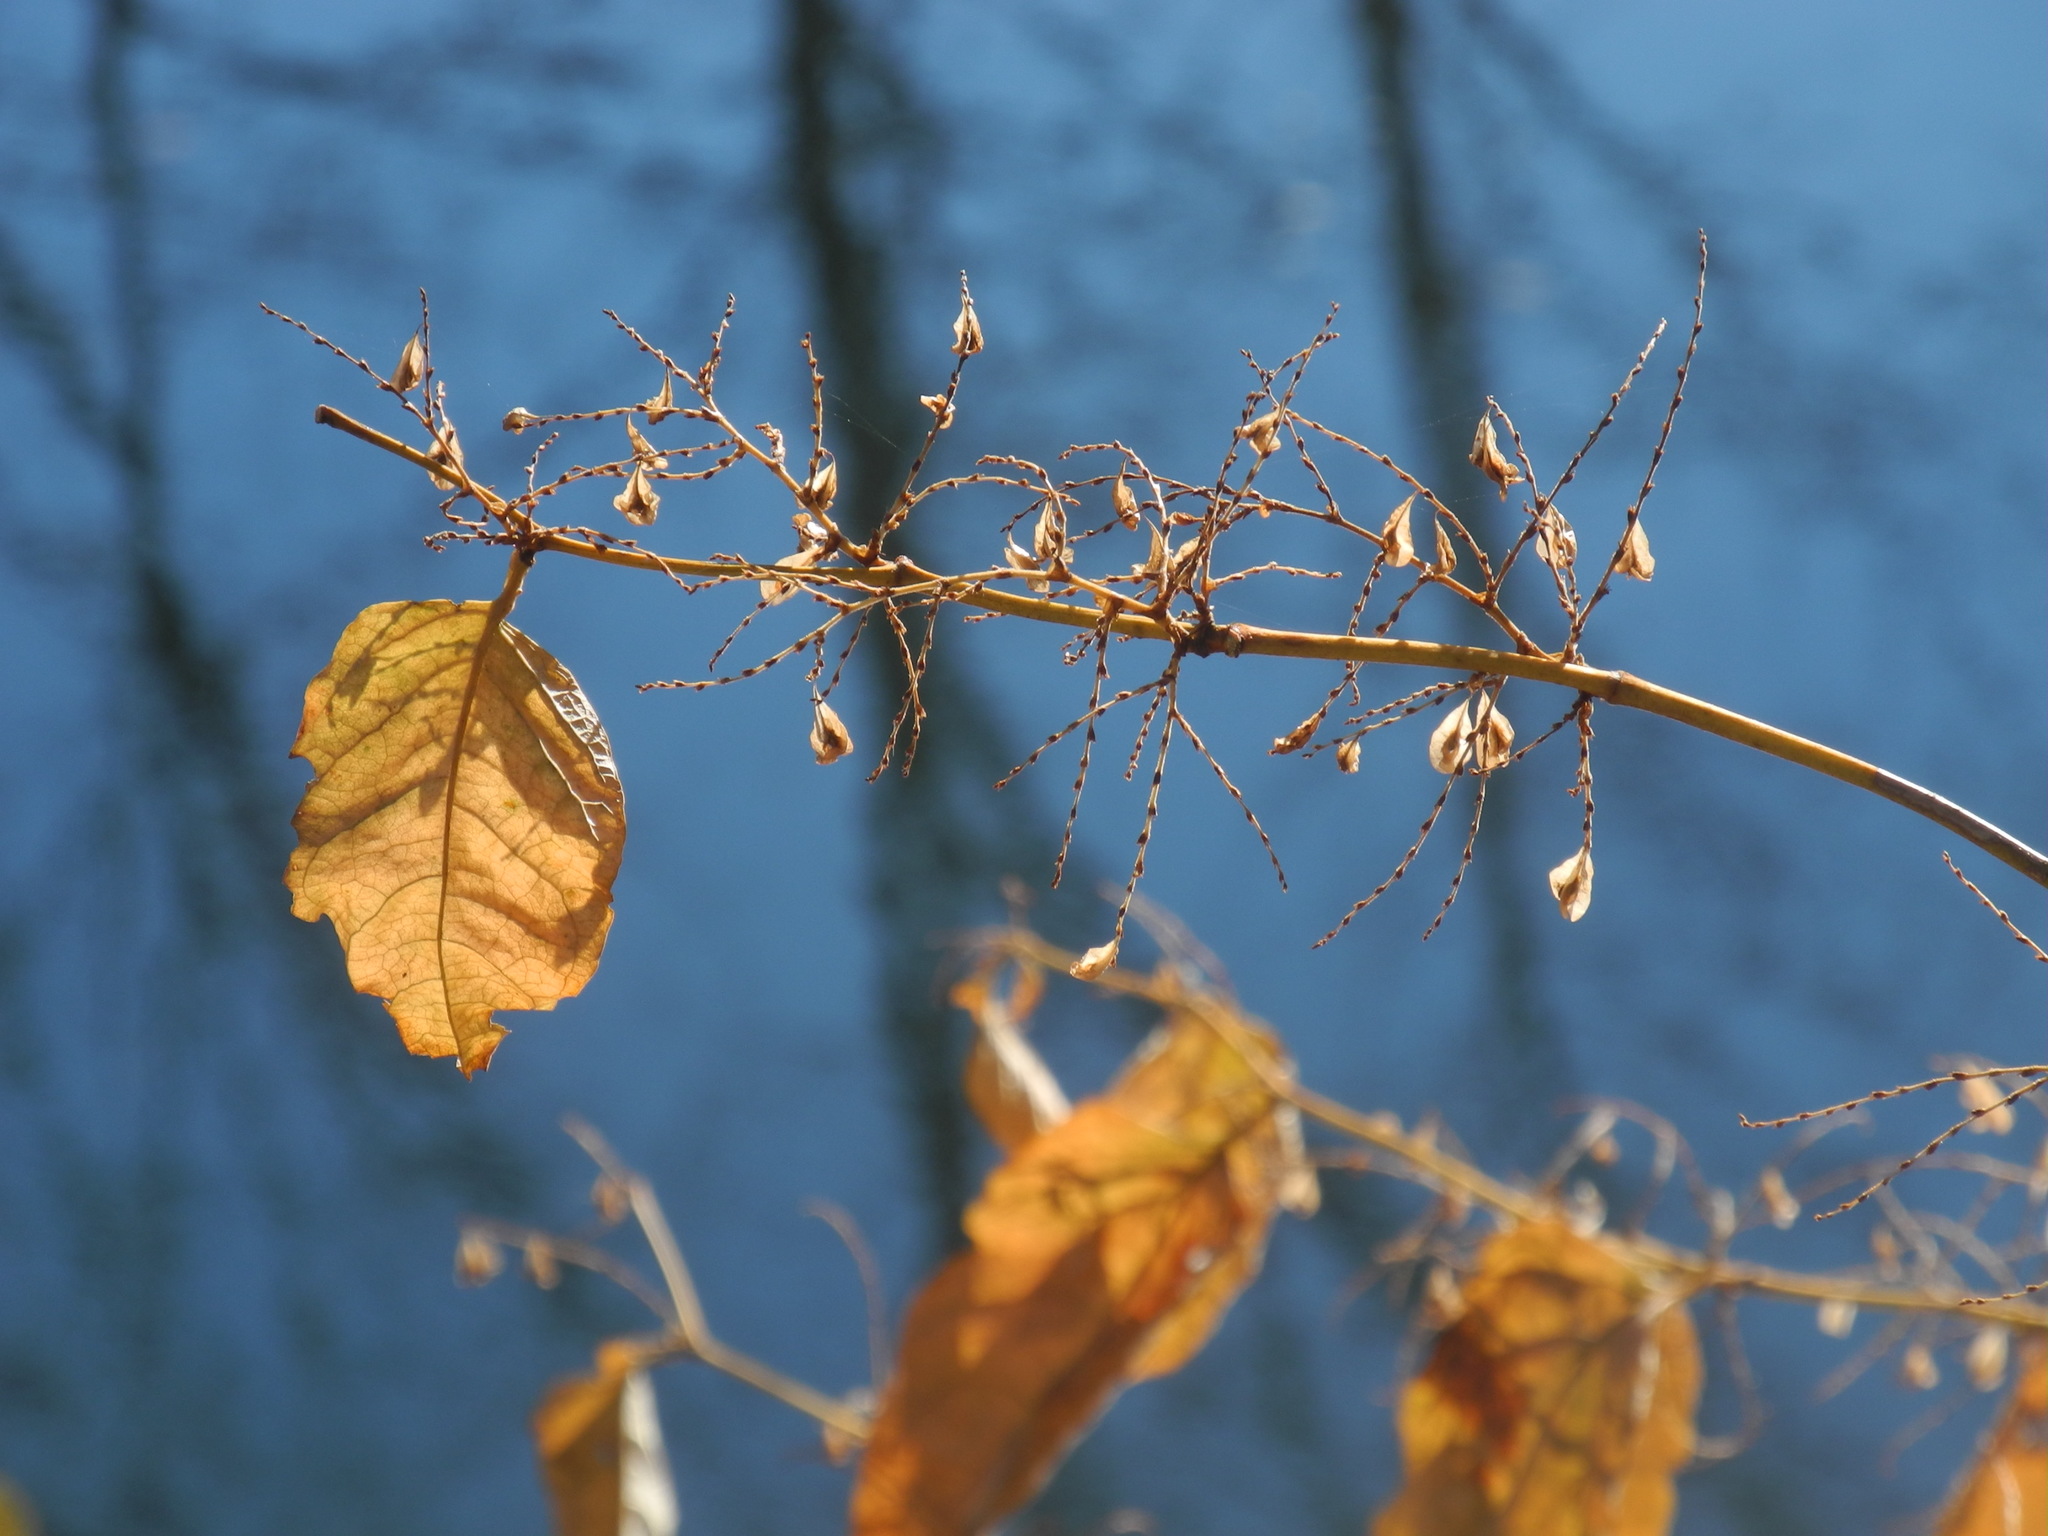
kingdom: Plantae
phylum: Tracheophyta
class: Magnoliopsida
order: Caryophyllales
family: Polygonaceae
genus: Reynoutria
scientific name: Reynoutria japonica
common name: Japanese knotweed
